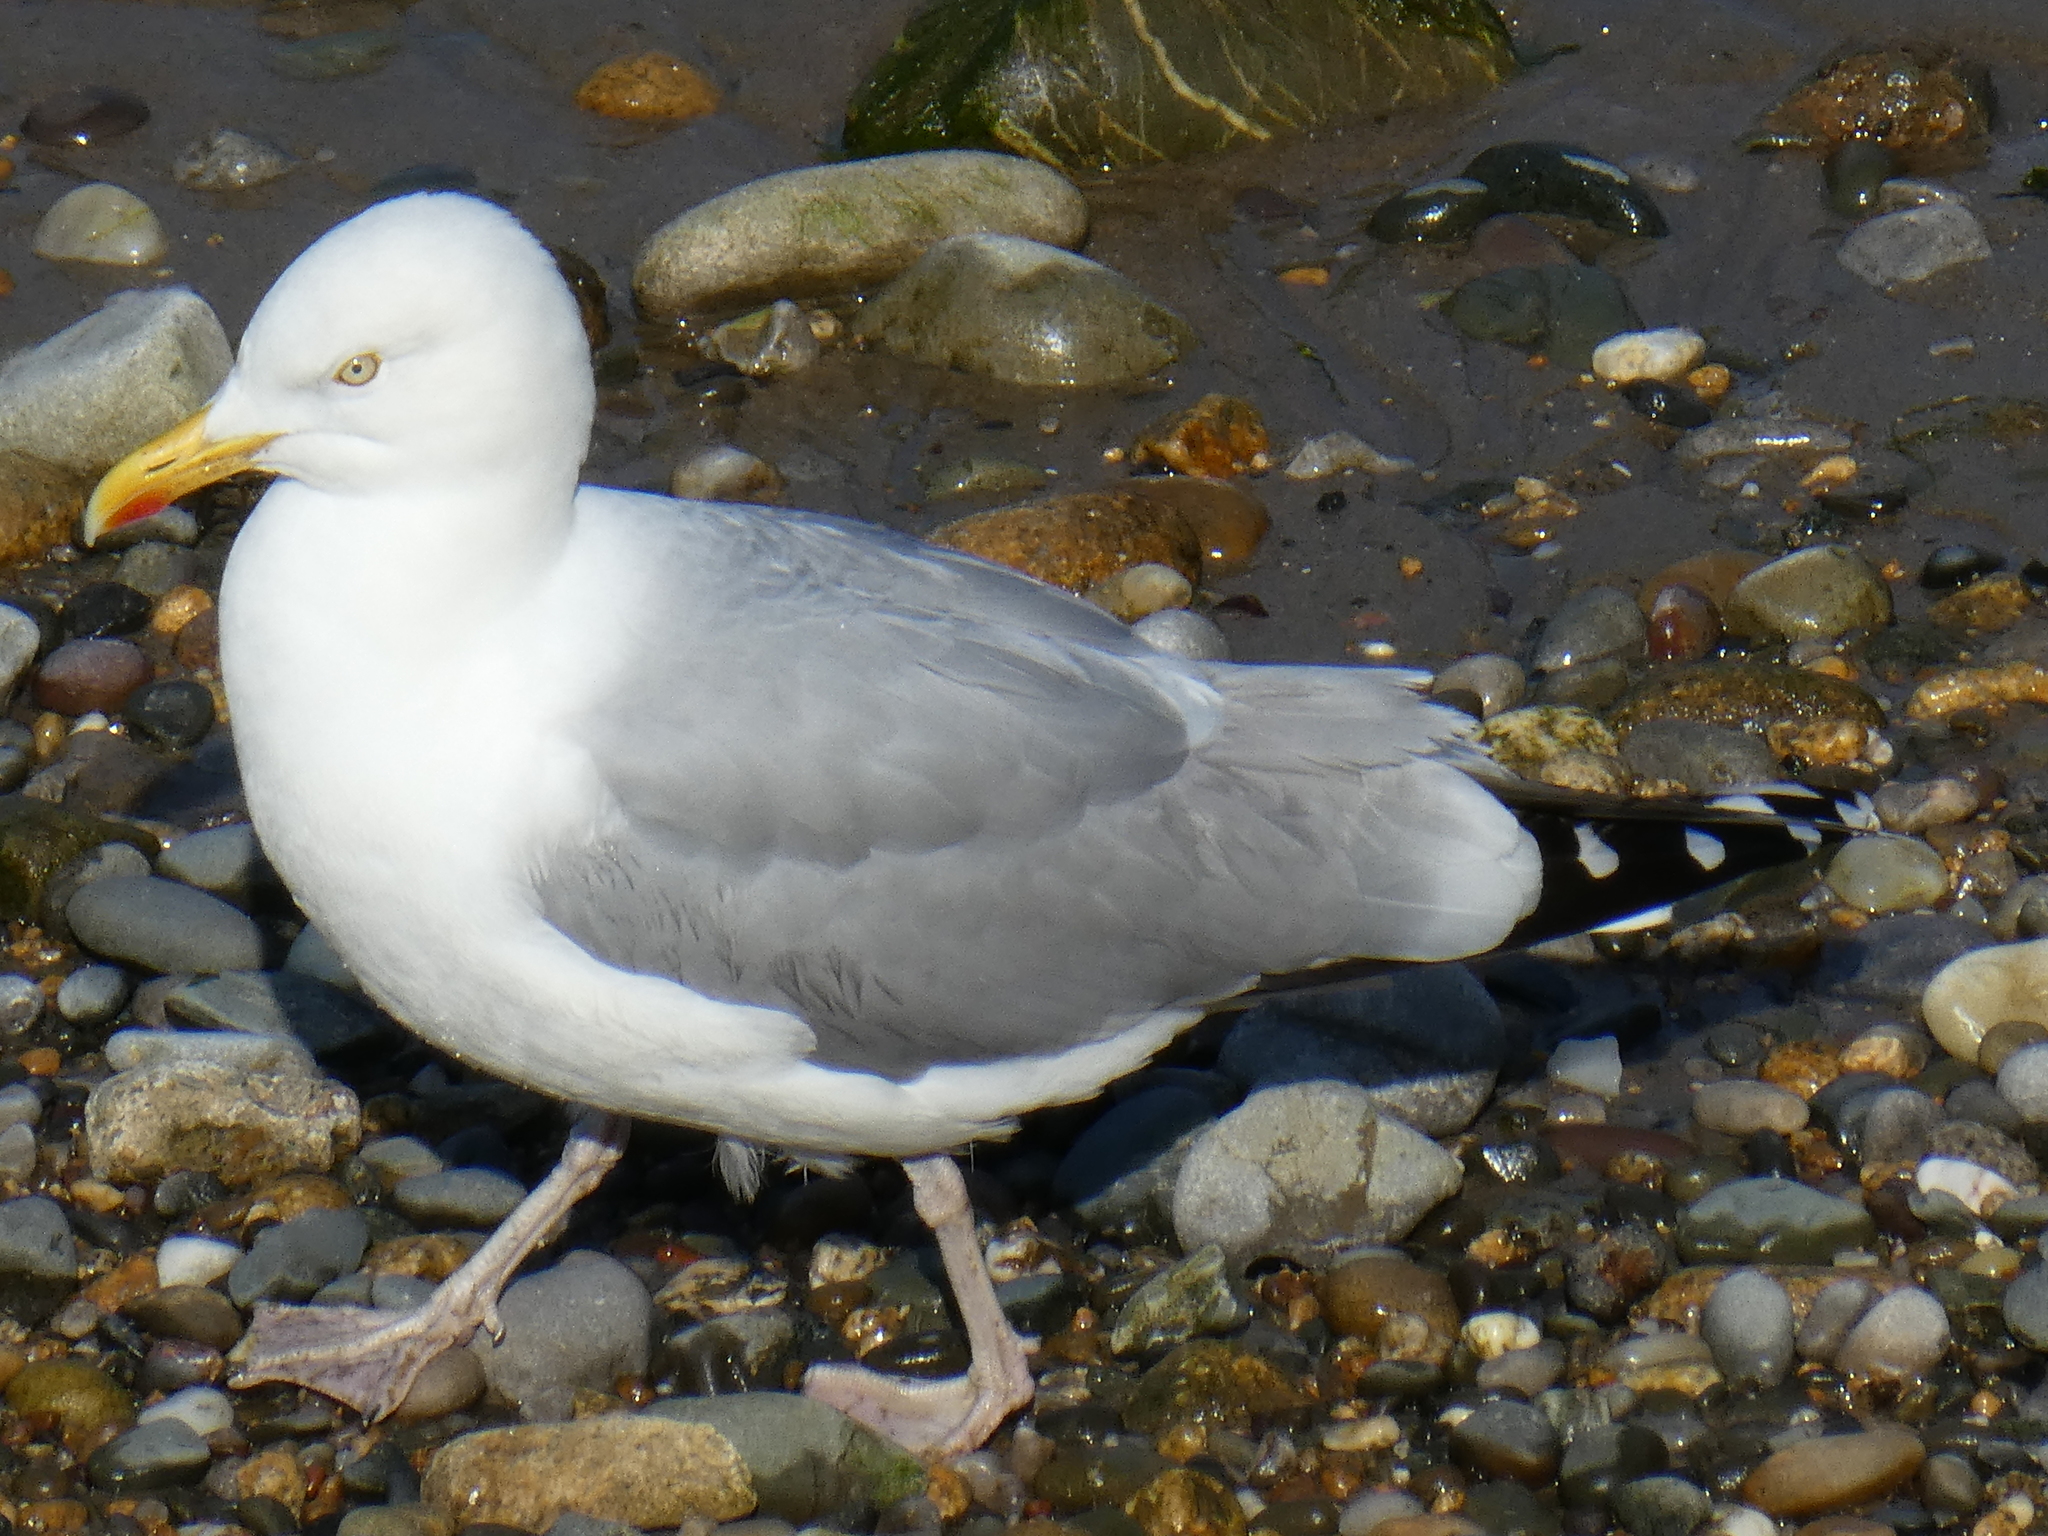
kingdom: Animalia
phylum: Chordata
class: Aves
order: Charadriiformes
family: Laridae
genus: Larus
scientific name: Larus argentatus
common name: Herring gull
